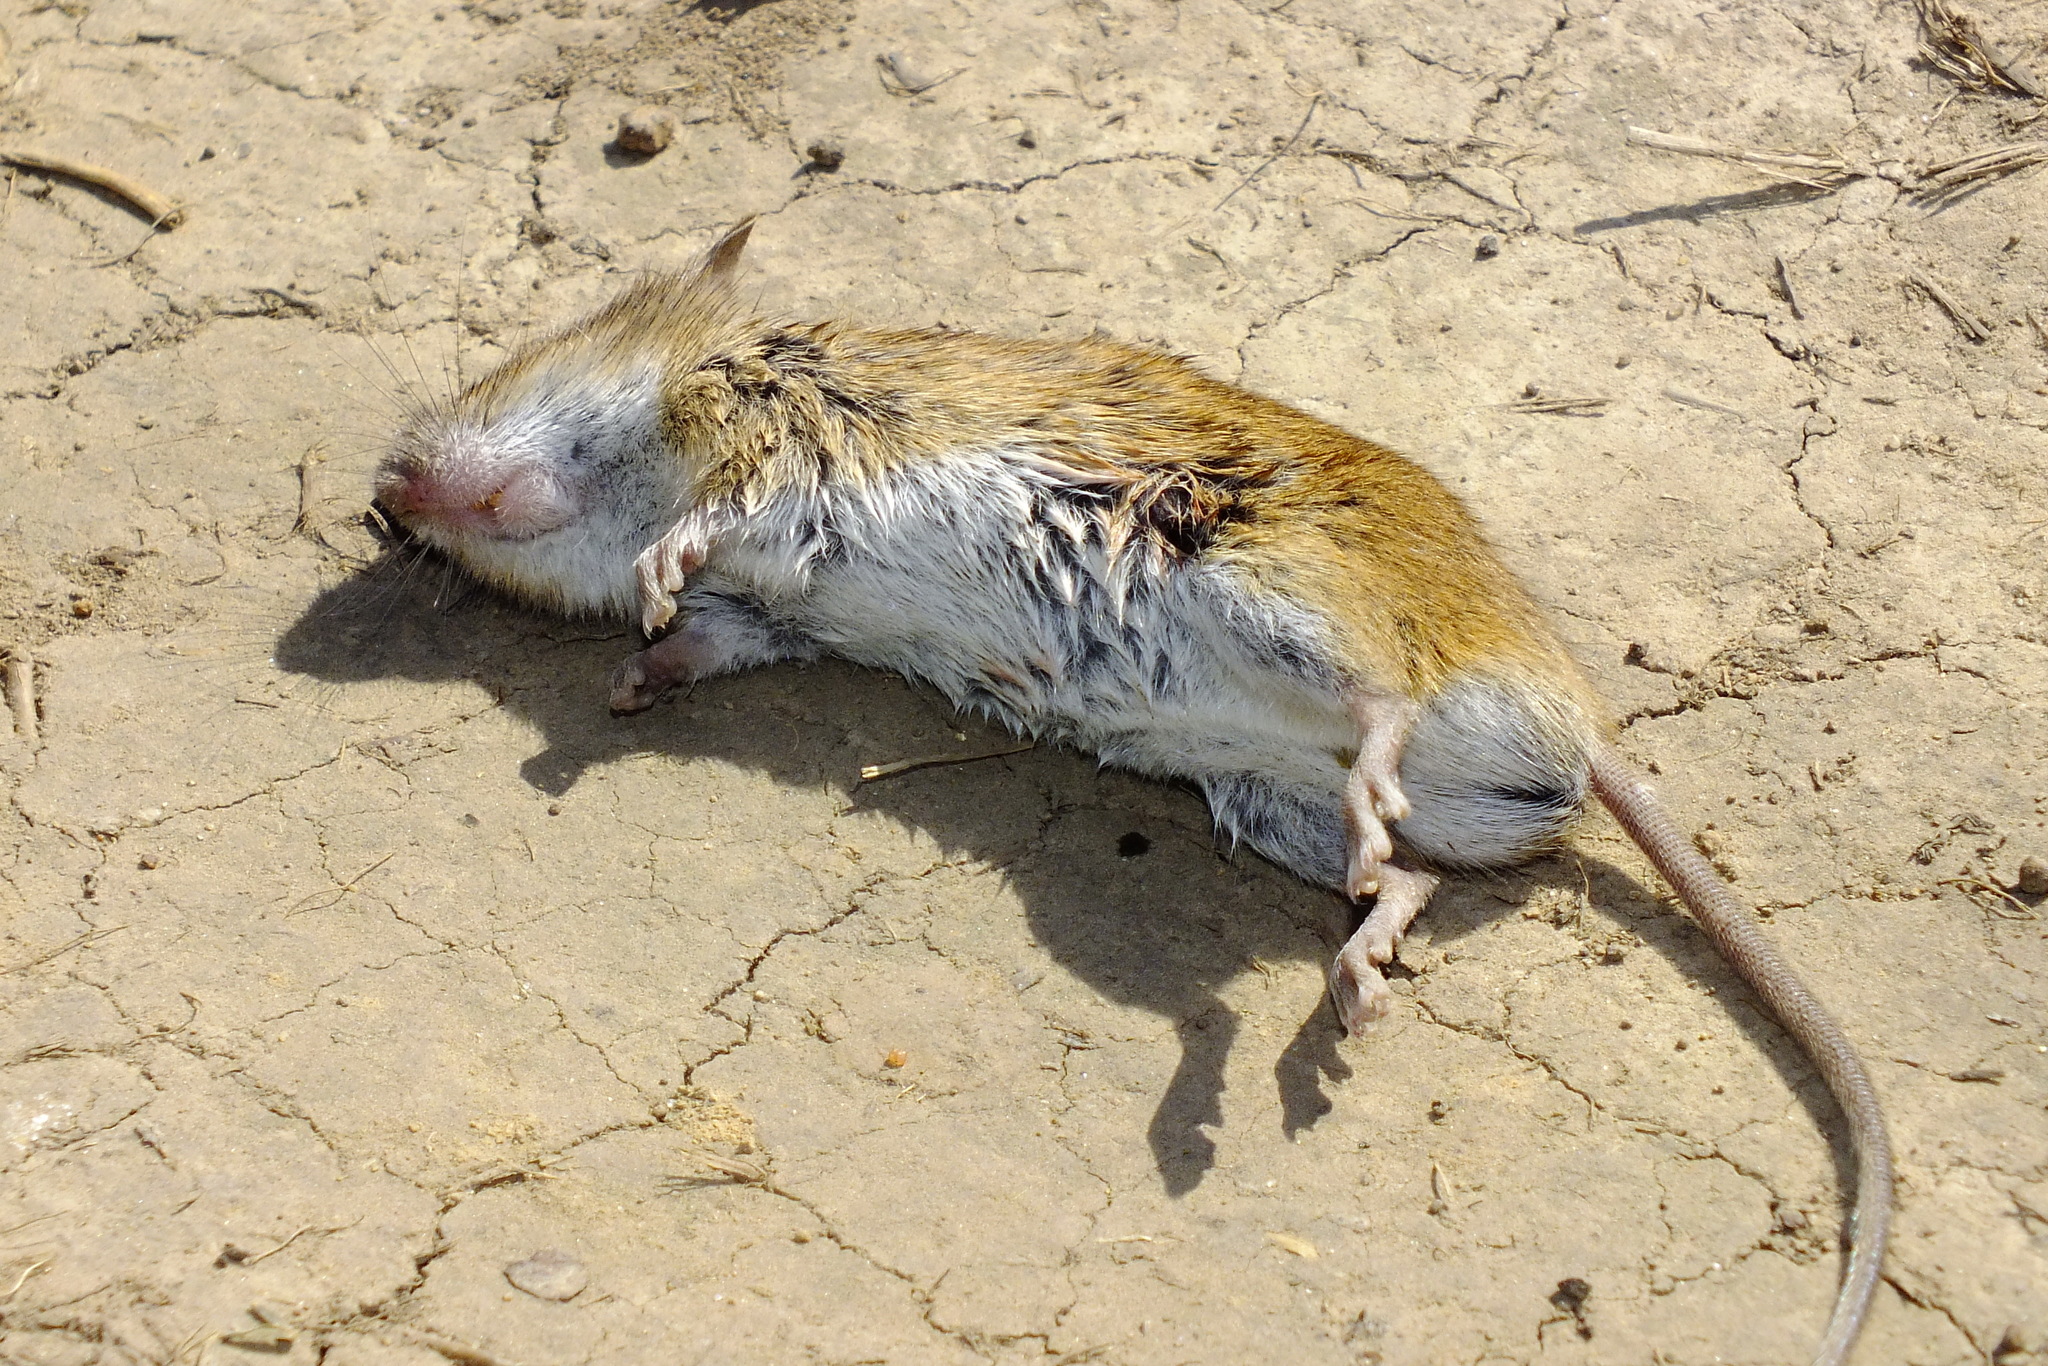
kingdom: Animalia
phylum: Chordata
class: Mammalia
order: Rodentia
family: Muridae
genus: Apodemus
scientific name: Apodemus agrarius
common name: Striped field mouse
